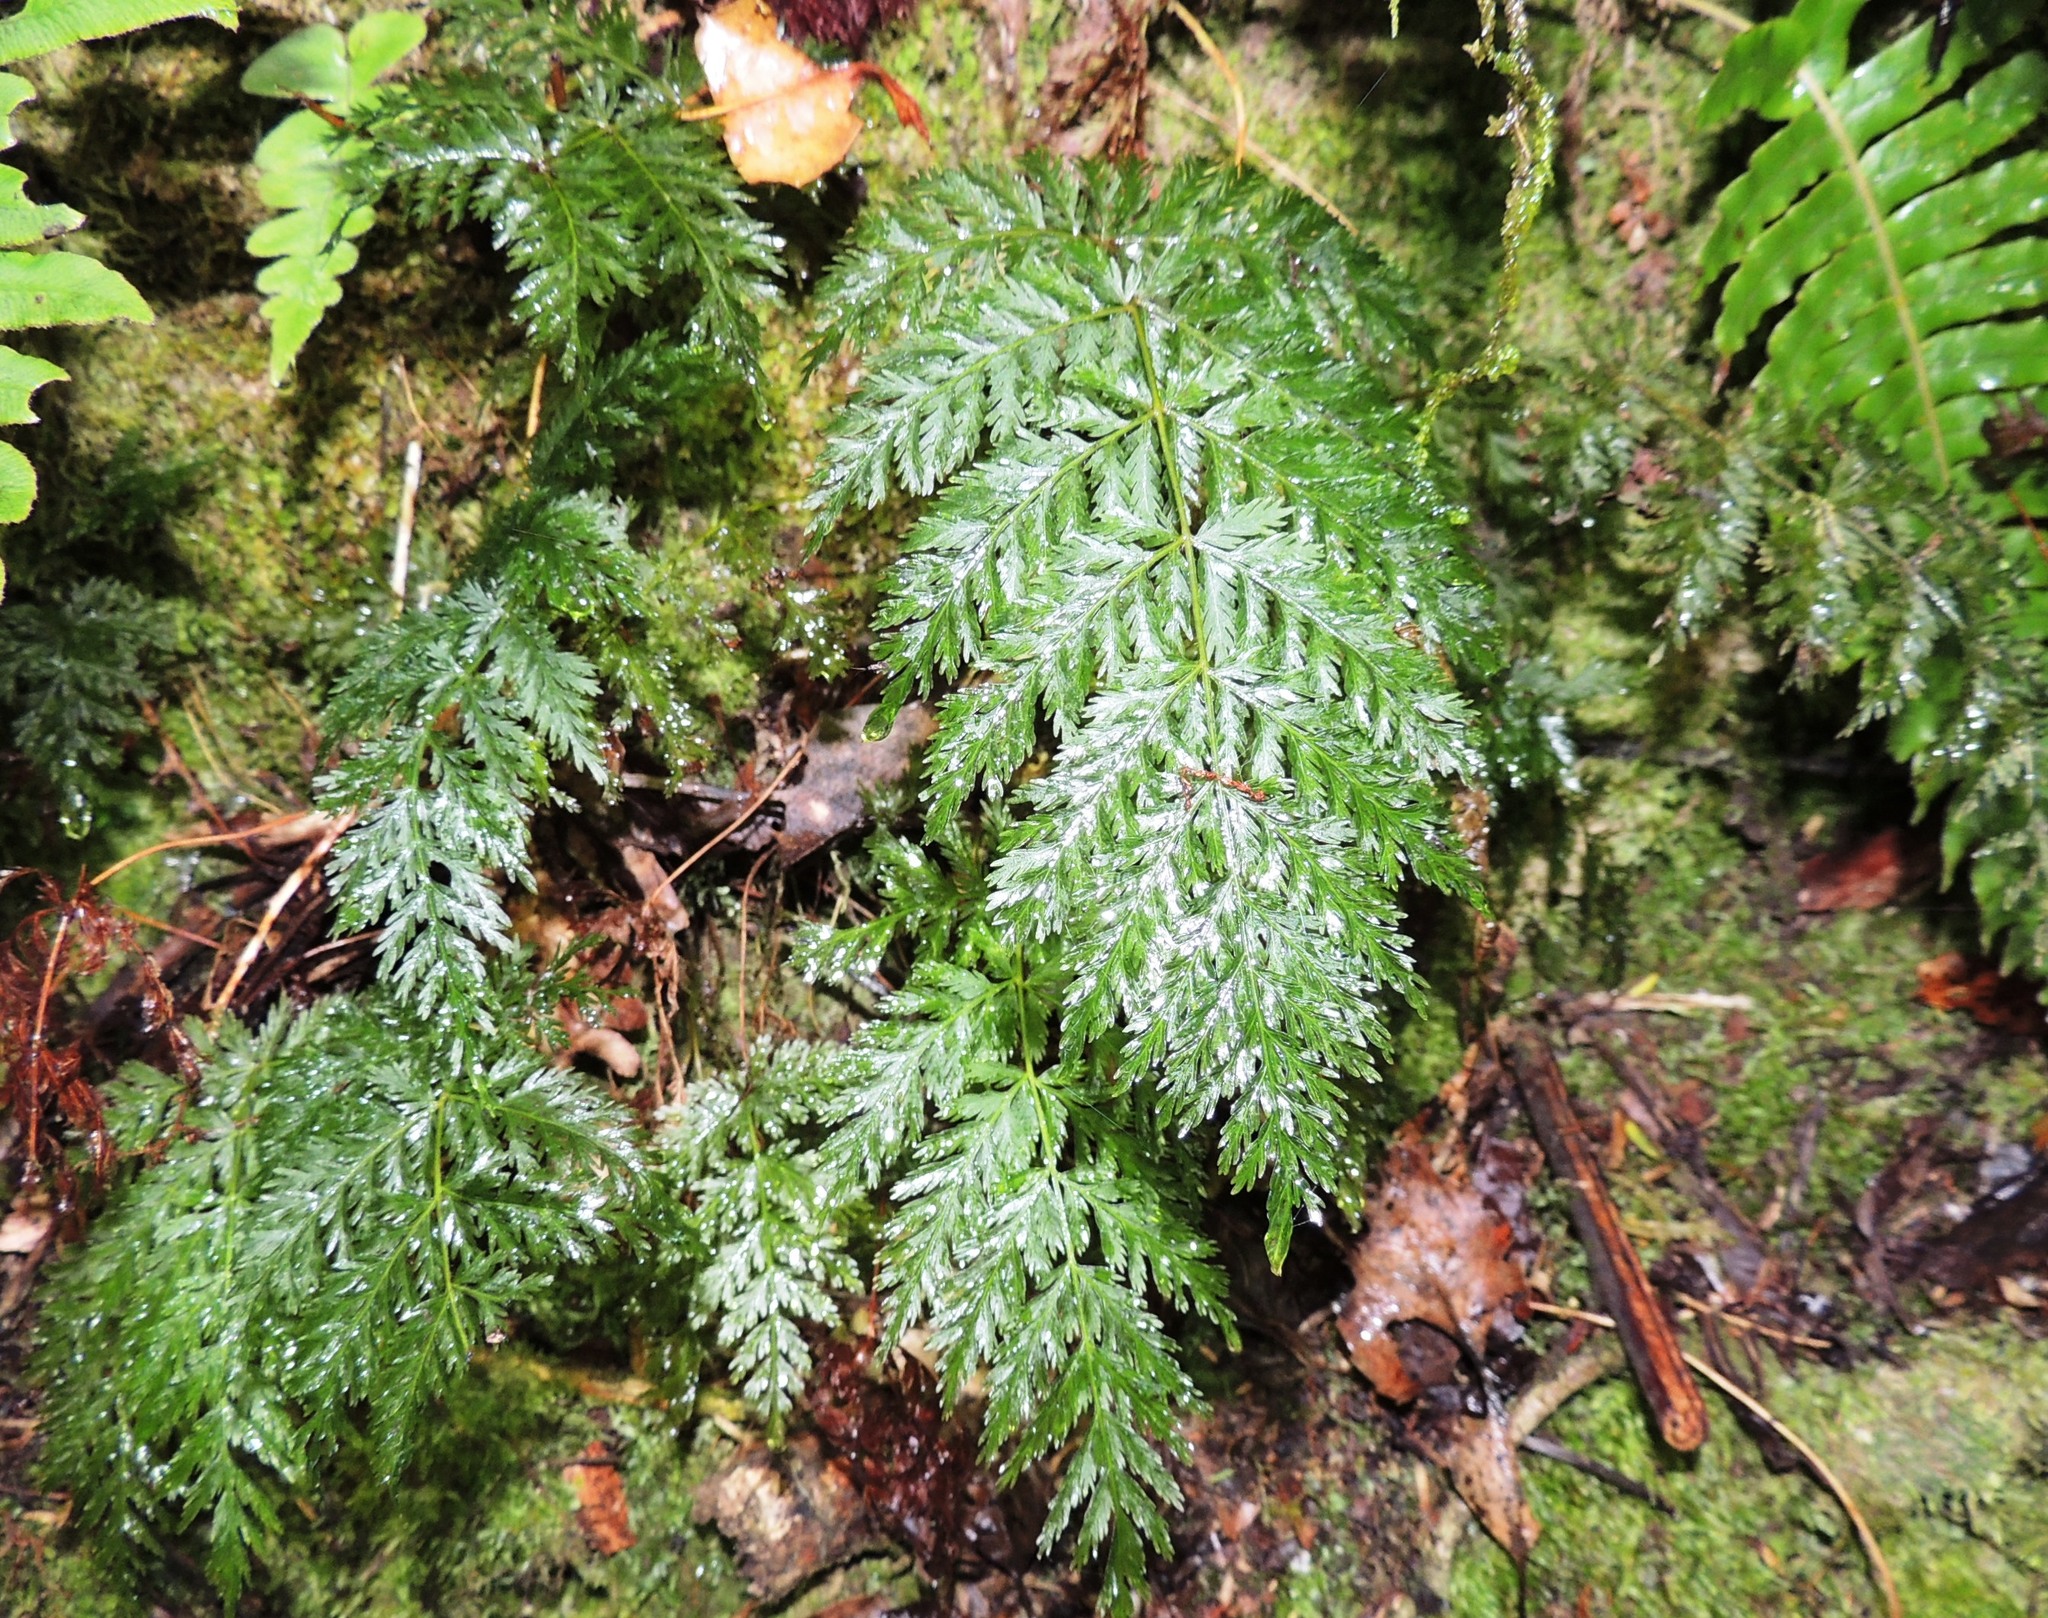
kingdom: Plantae
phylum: Tracheophyta
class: Polypodiopsida
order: Osmundales
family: Osmundaceae
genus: Leptopteris
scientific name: Leptopteris hymenophylloides
